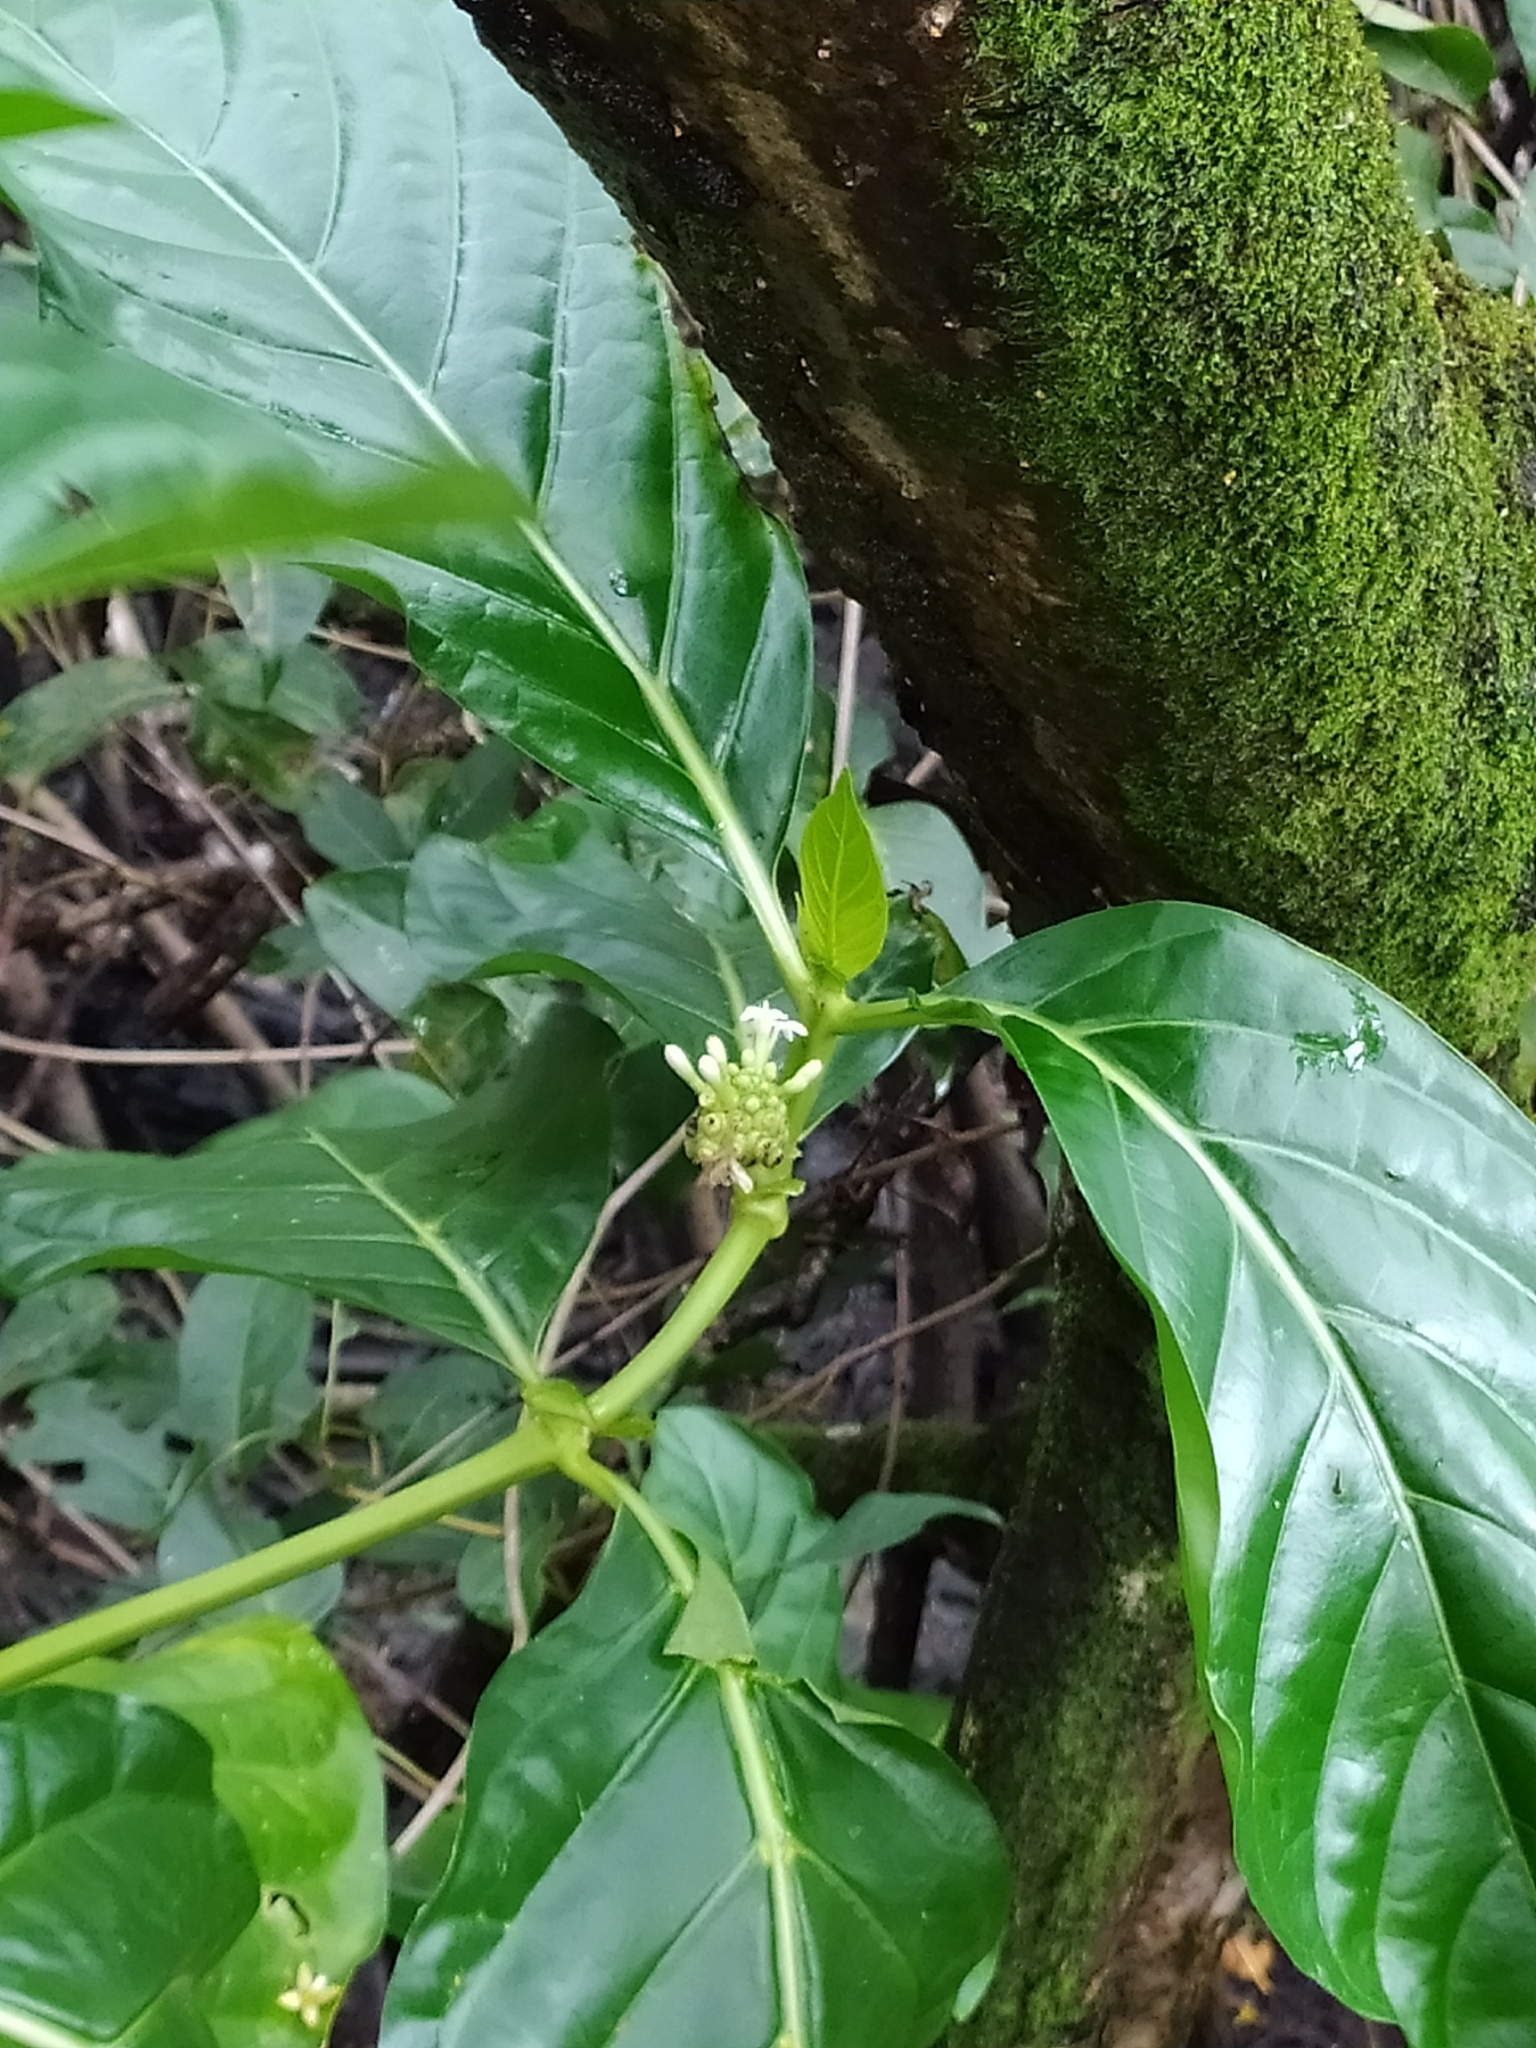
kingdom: Plantae
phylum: Tracheophyta
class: Magnoliopsida
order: Gentianales
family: Rubiaceae
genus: Morinda
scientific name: Morinda citrifolia
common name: Indian-mulberry
